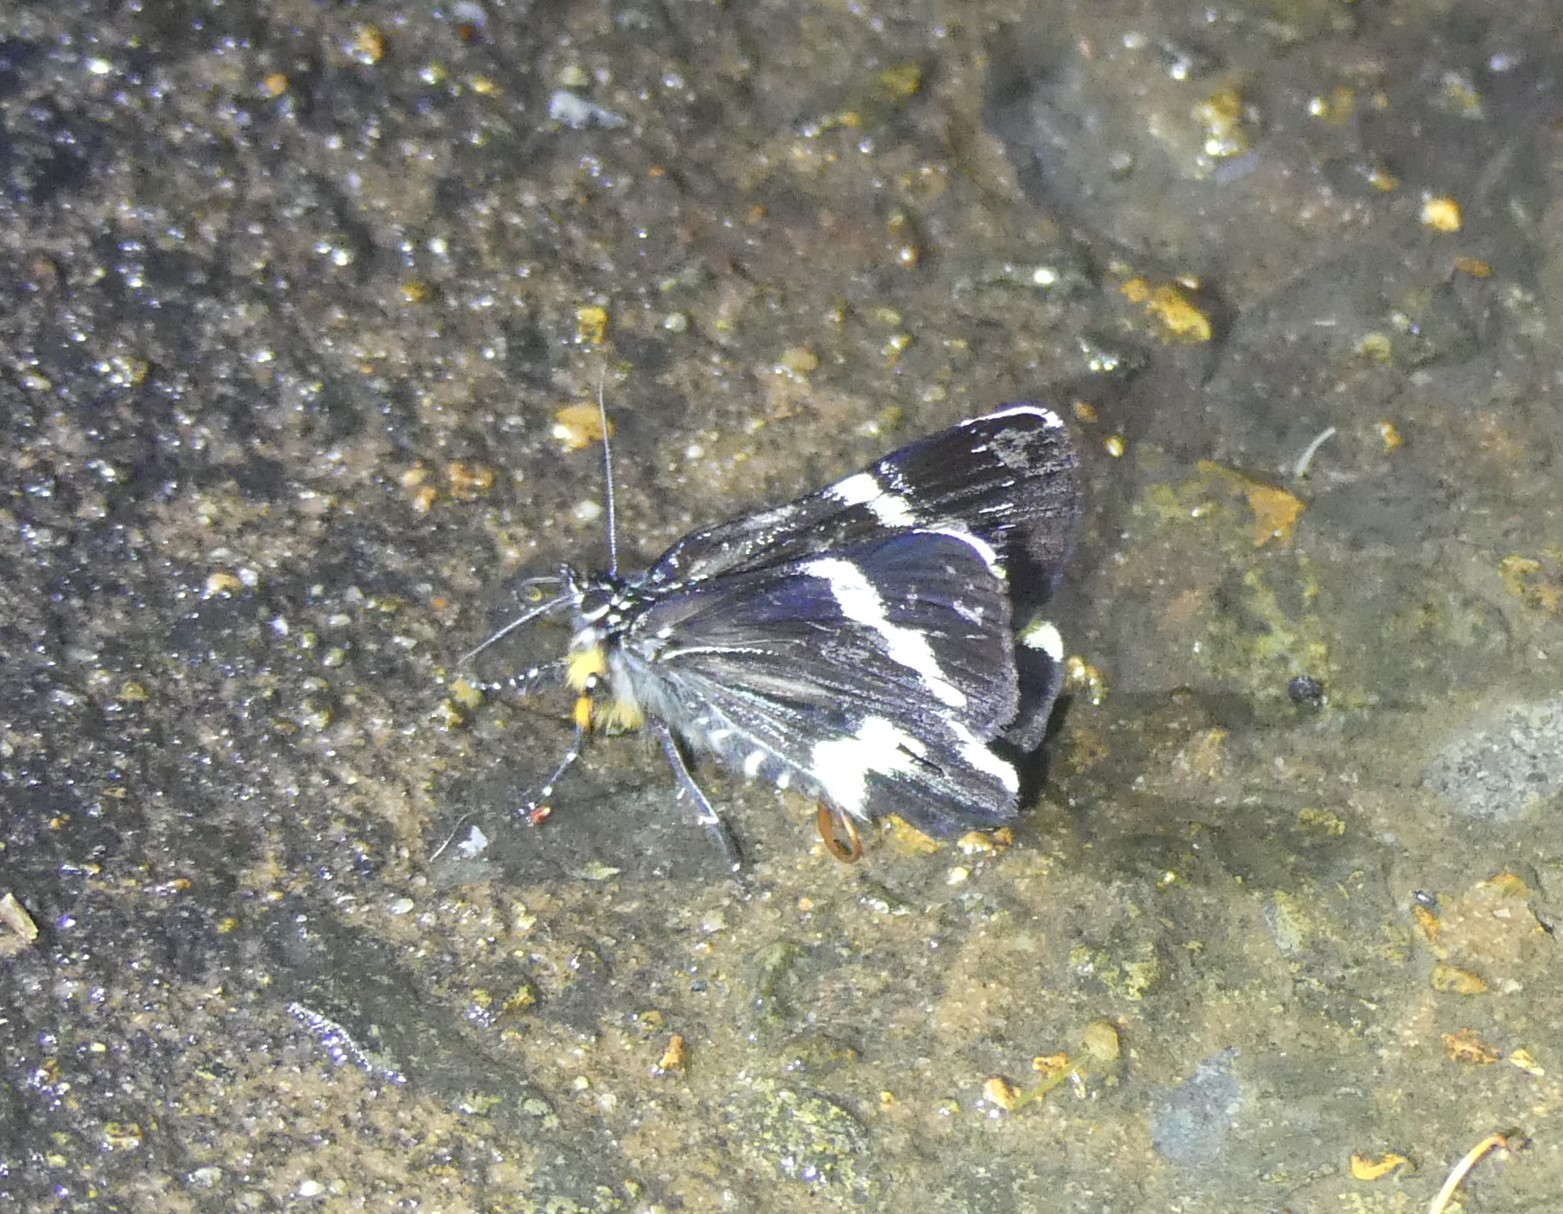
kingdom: Animalia
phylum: Arthropoda
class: Insecta
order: Lepidoptera
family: Noctuidae
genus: Platagarista
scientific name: Platagarista macleayi
